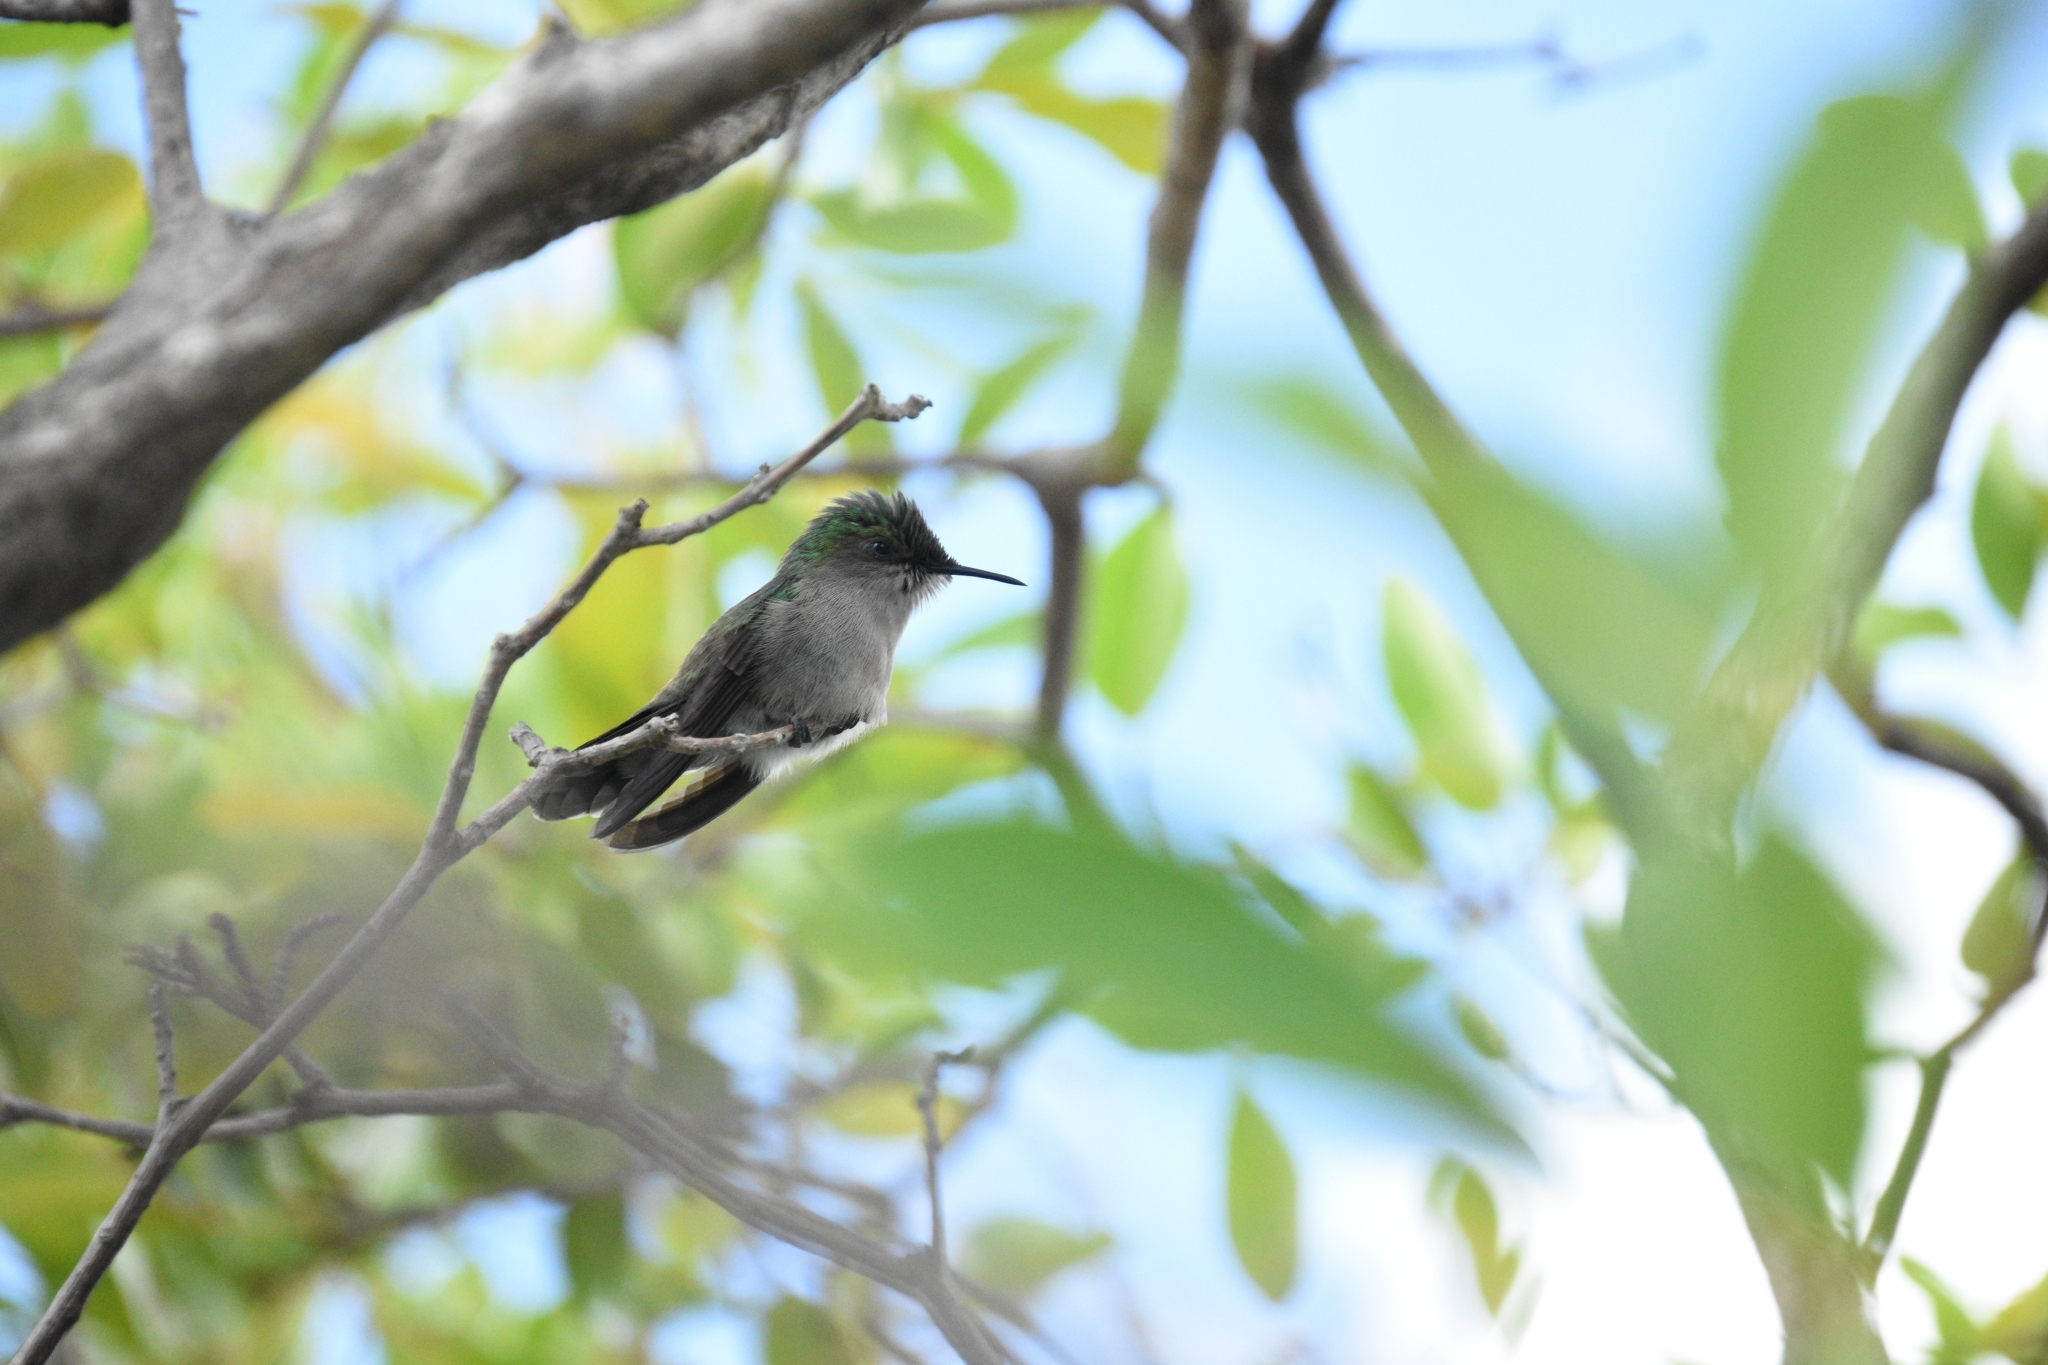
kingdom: Animalia
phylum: Chordata
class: Aves
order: Apodiformes
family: Trochilidae
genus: Orthorhyncus
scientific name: Orthorhyncus cristatus
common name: Antillean crested hummingbird
